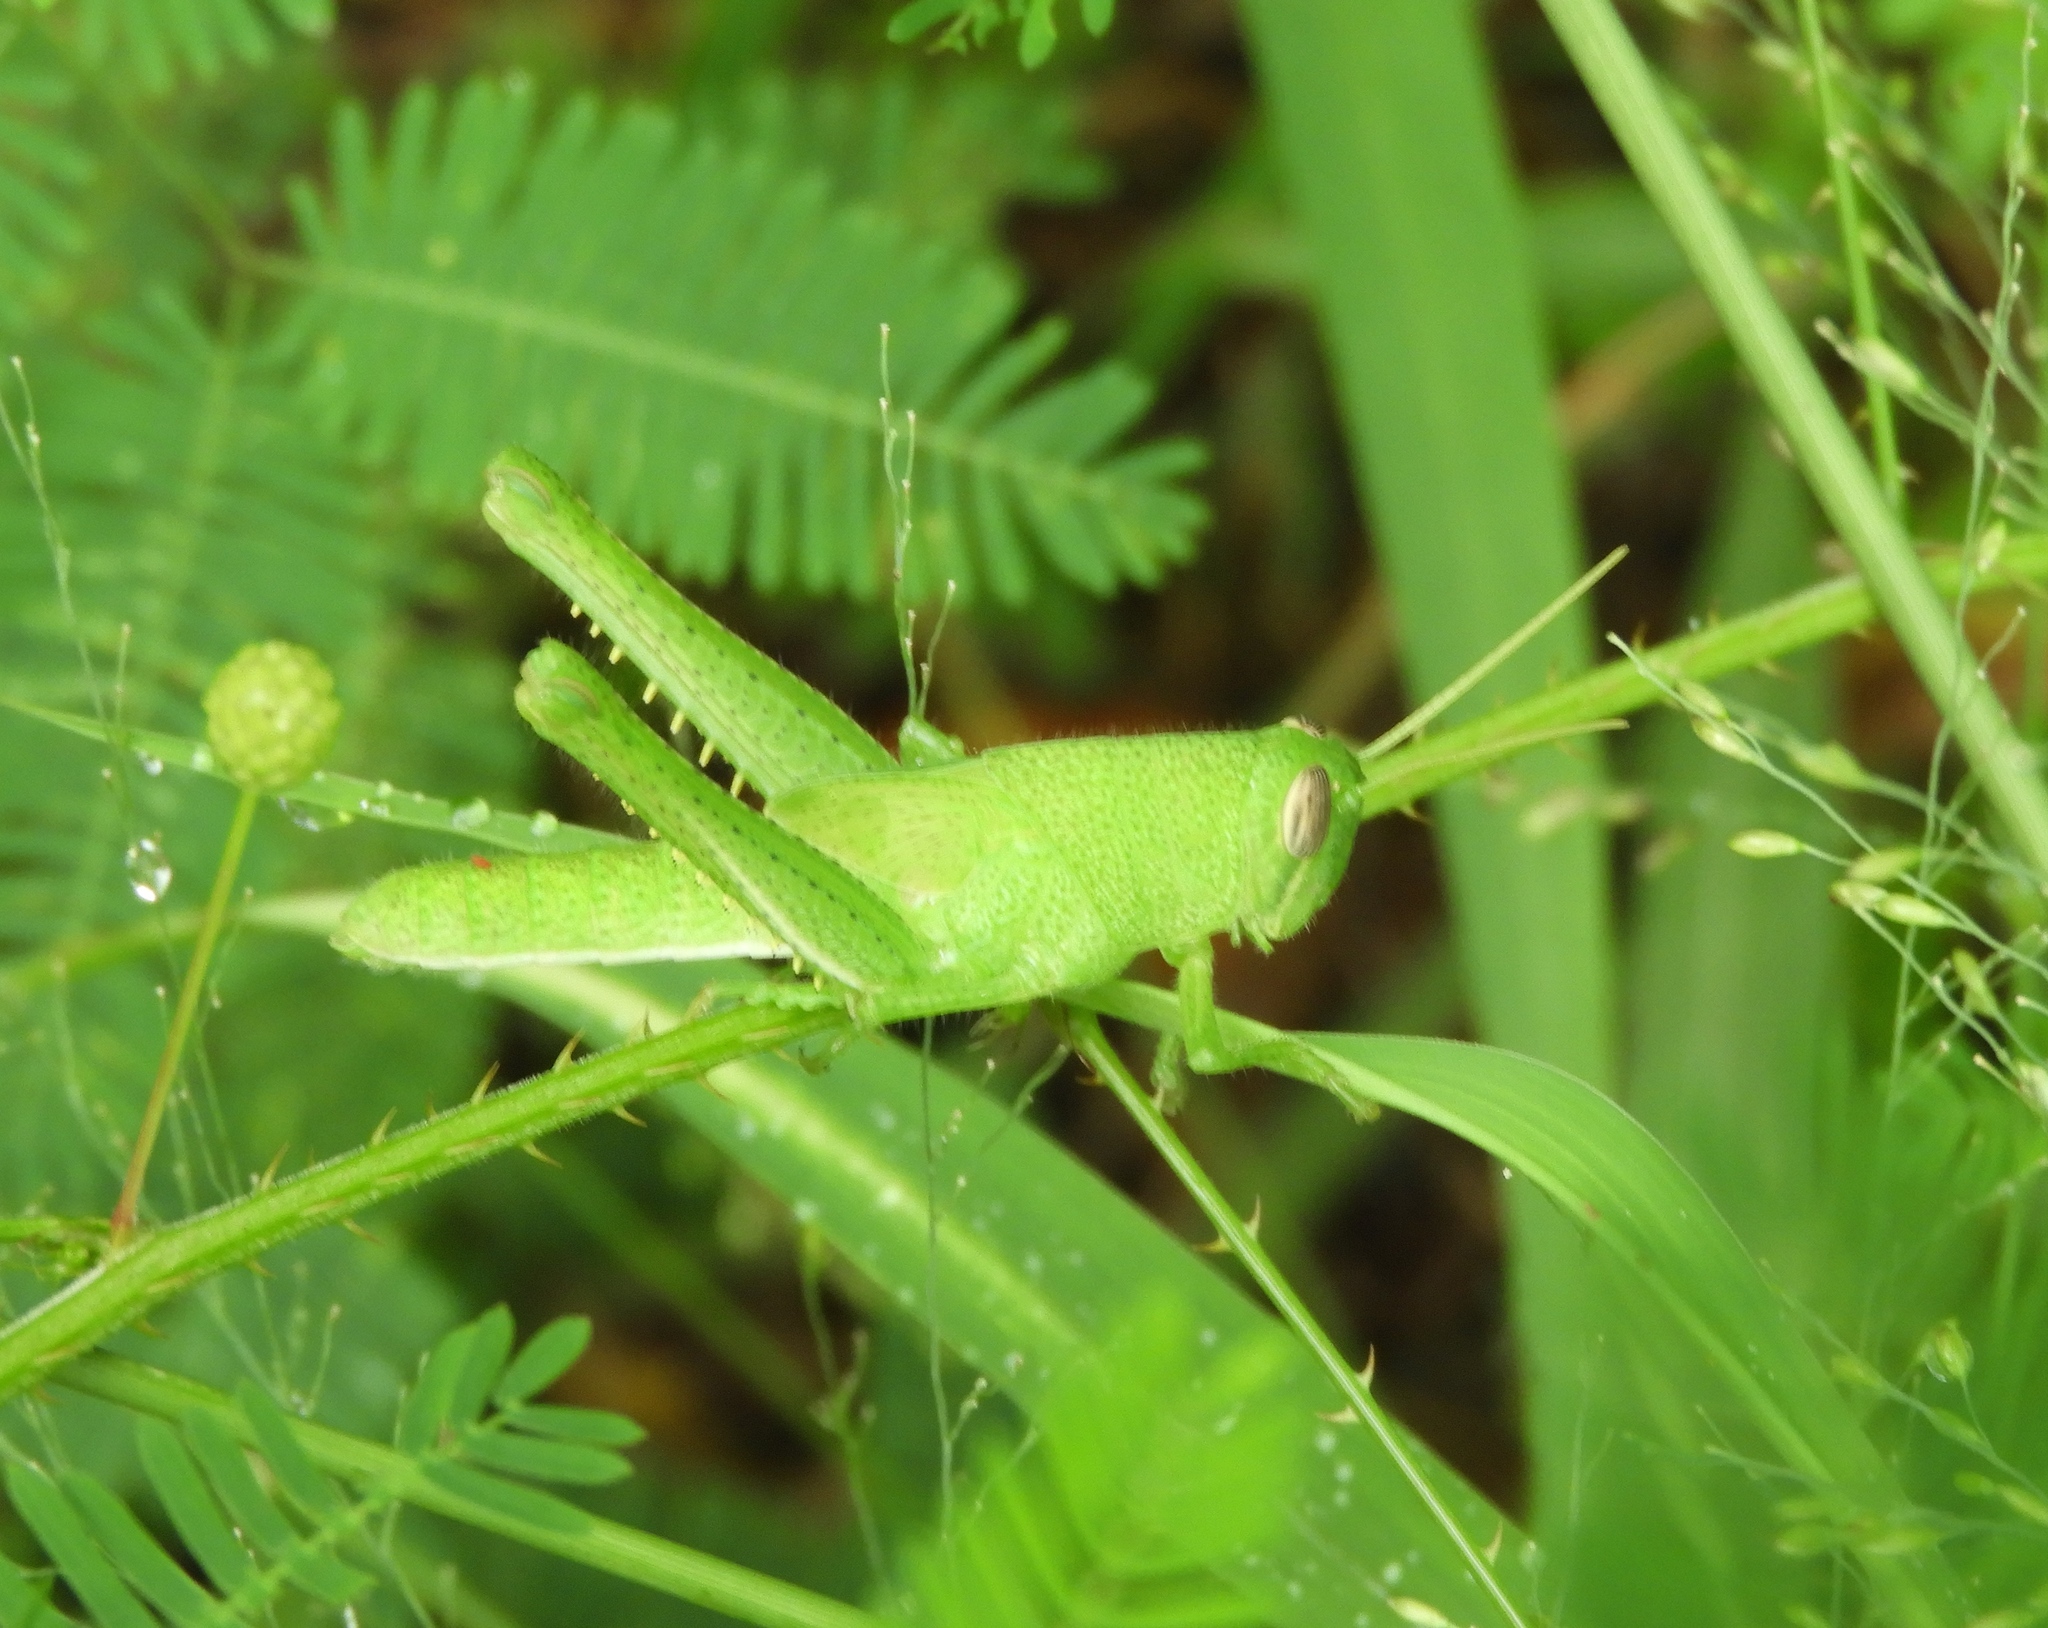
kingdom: Animalia
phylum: Arthropoda
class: Insecta
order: Orthoptera
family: Acrididae
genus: Schistocerca
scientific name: Schistocerca camerata
